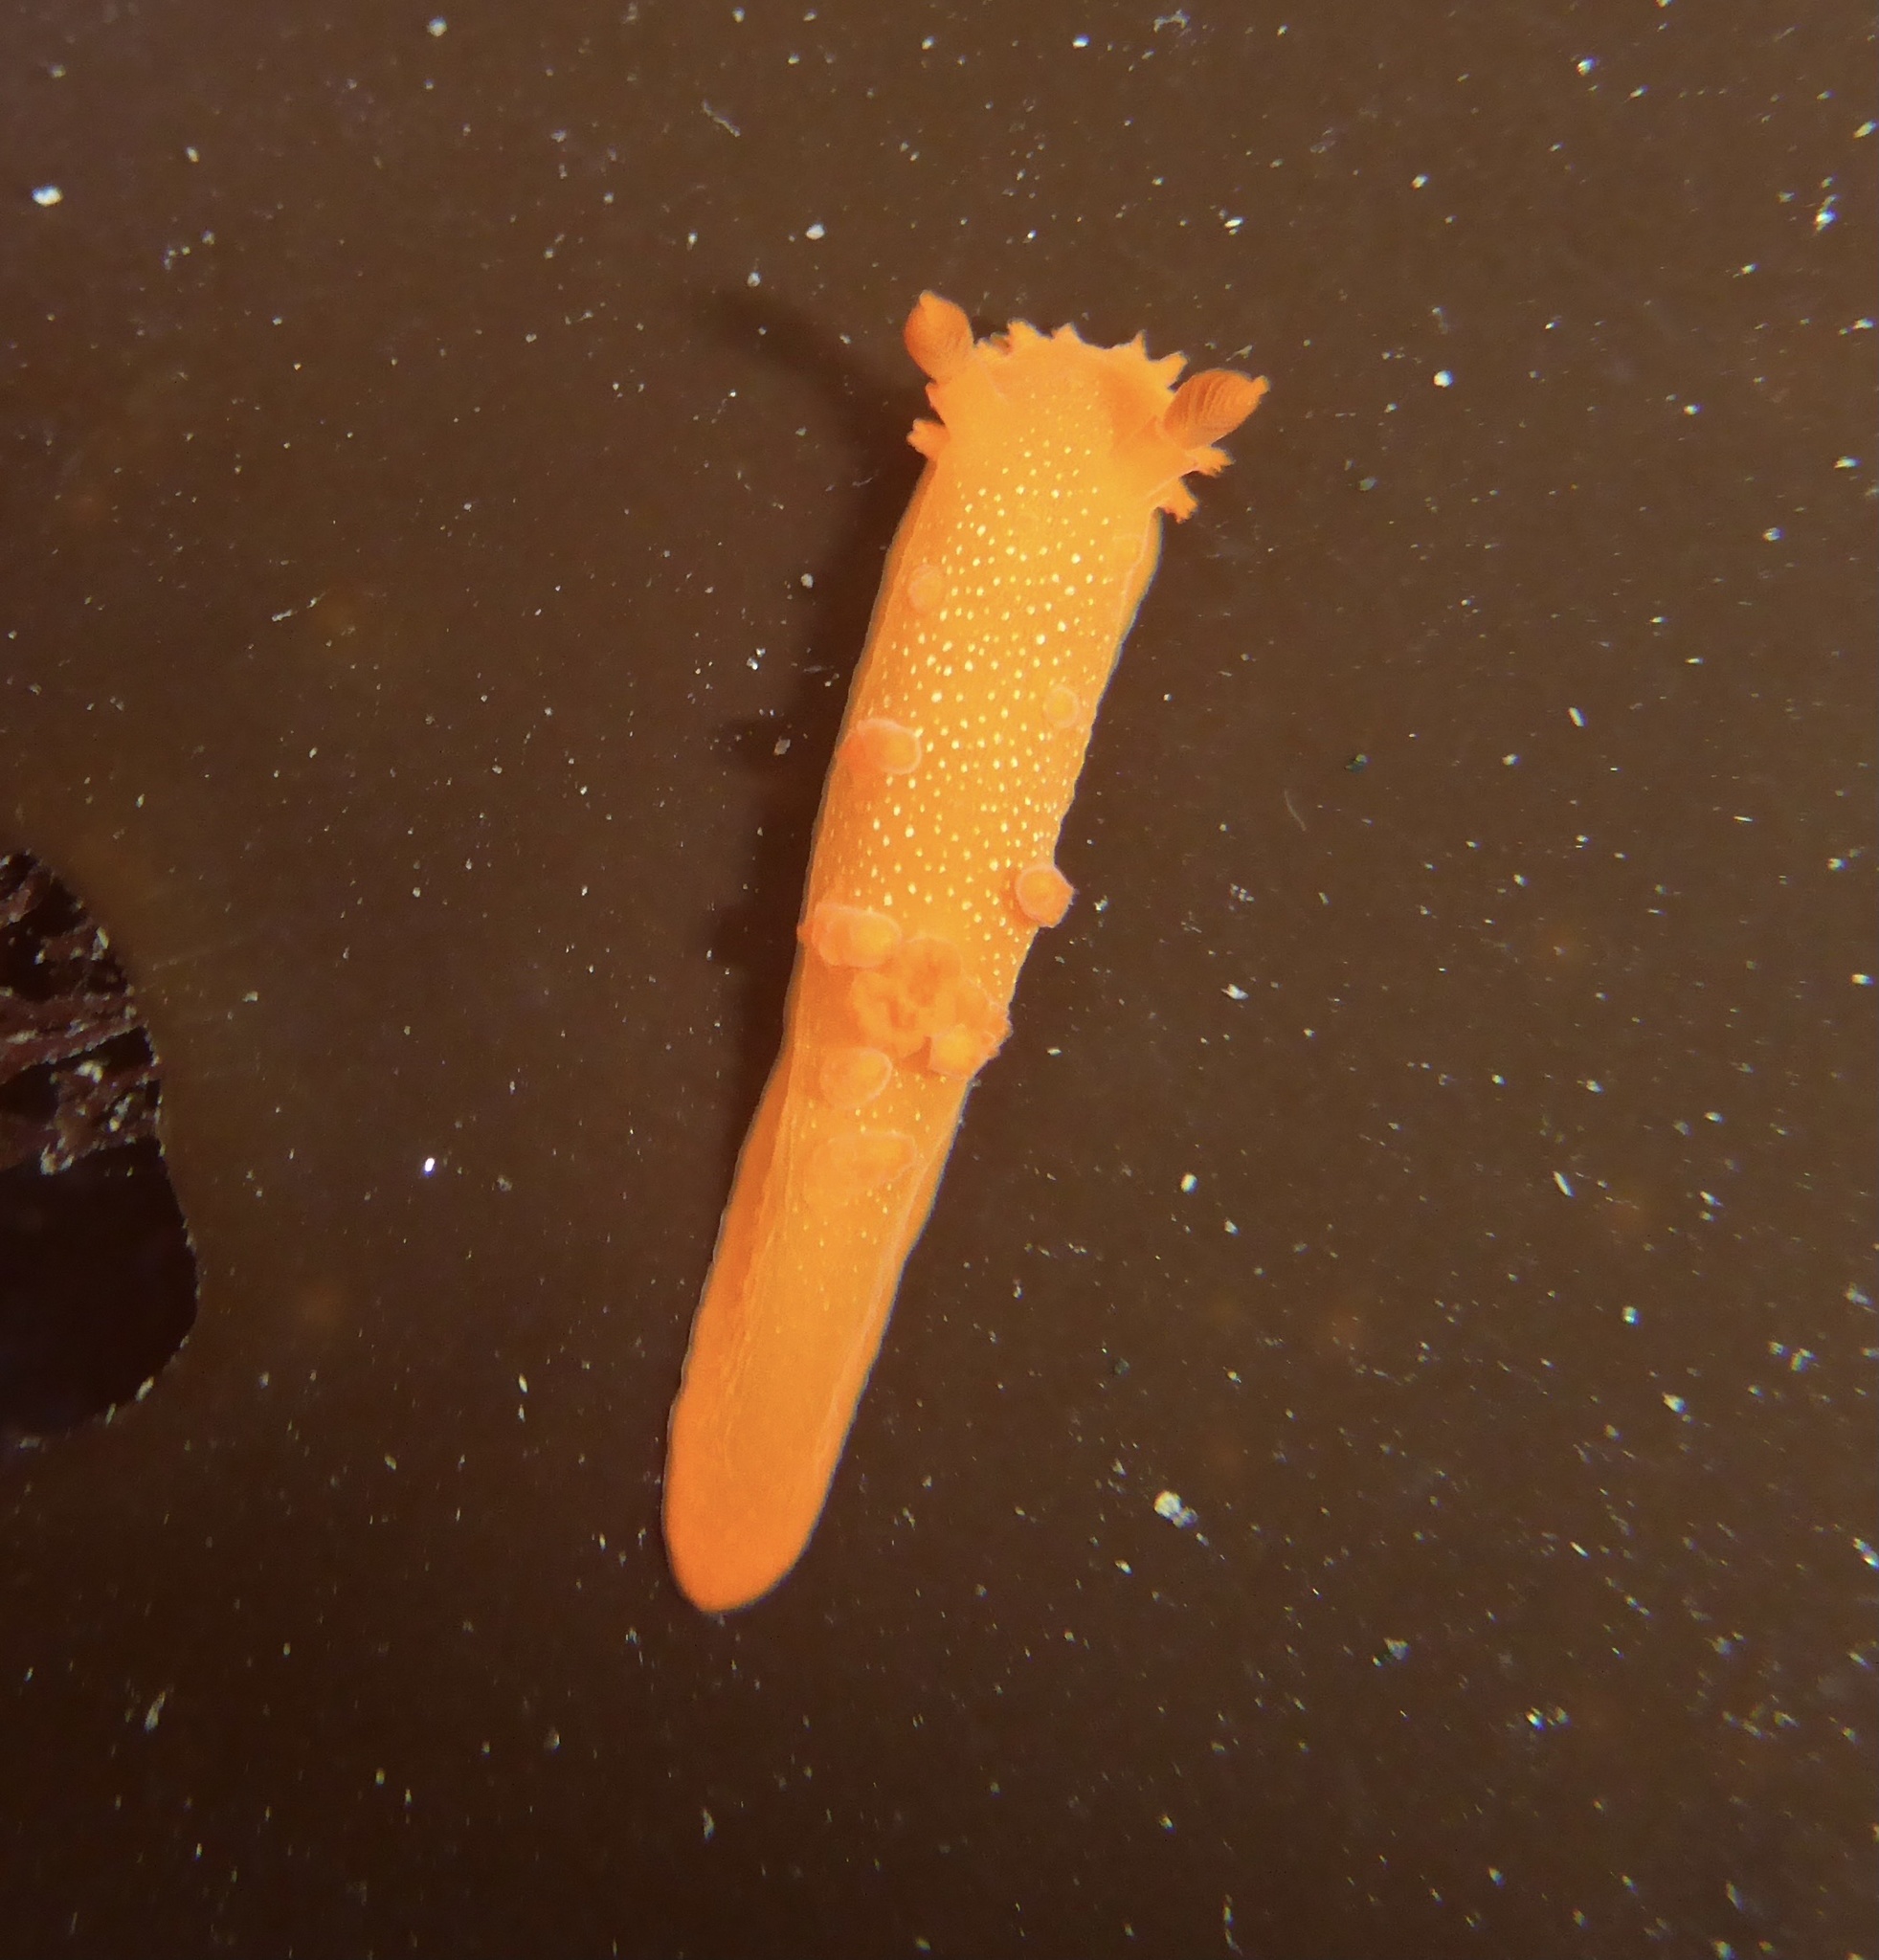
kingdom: Animalia
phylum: Mollusca
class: Gastropoda
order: Nudibranchia
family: Polyceridae
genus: Triopha
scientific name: Triopha maculata
